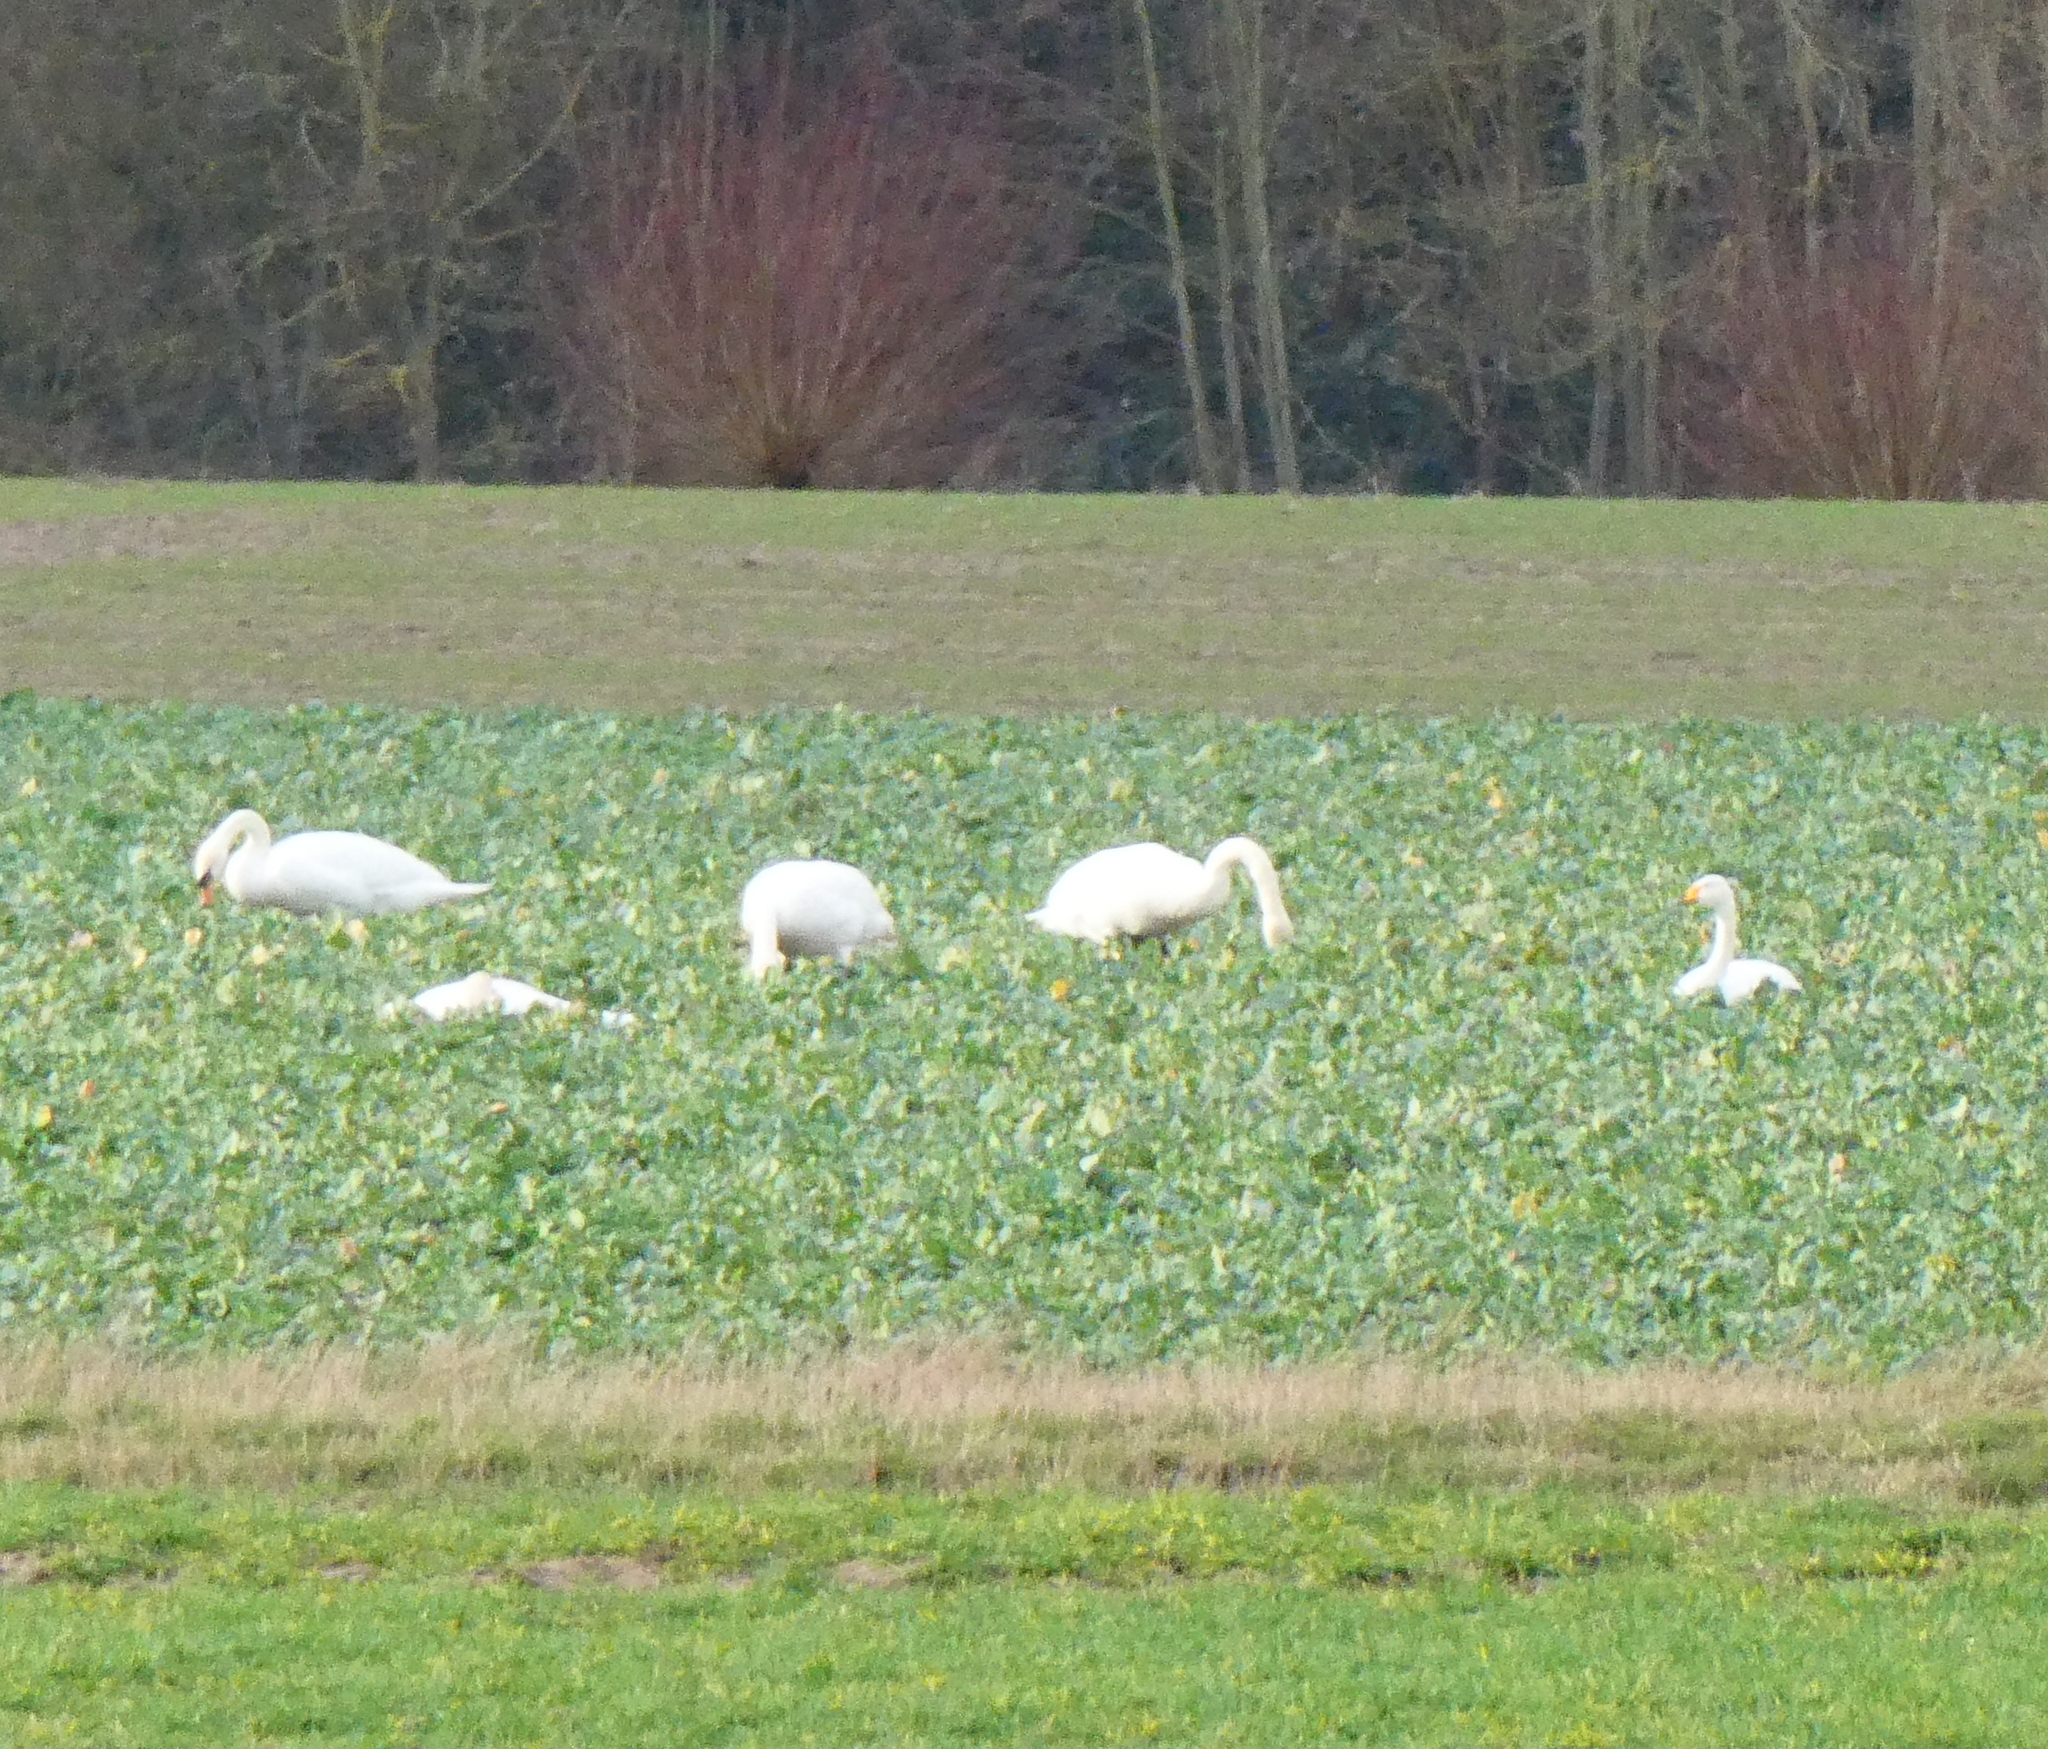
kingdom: Animalia
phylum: Chordata
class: Aves
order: Anseriformes
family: Anatidae
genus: Cygnus
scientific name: Cygnus olor
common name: Mute swan
